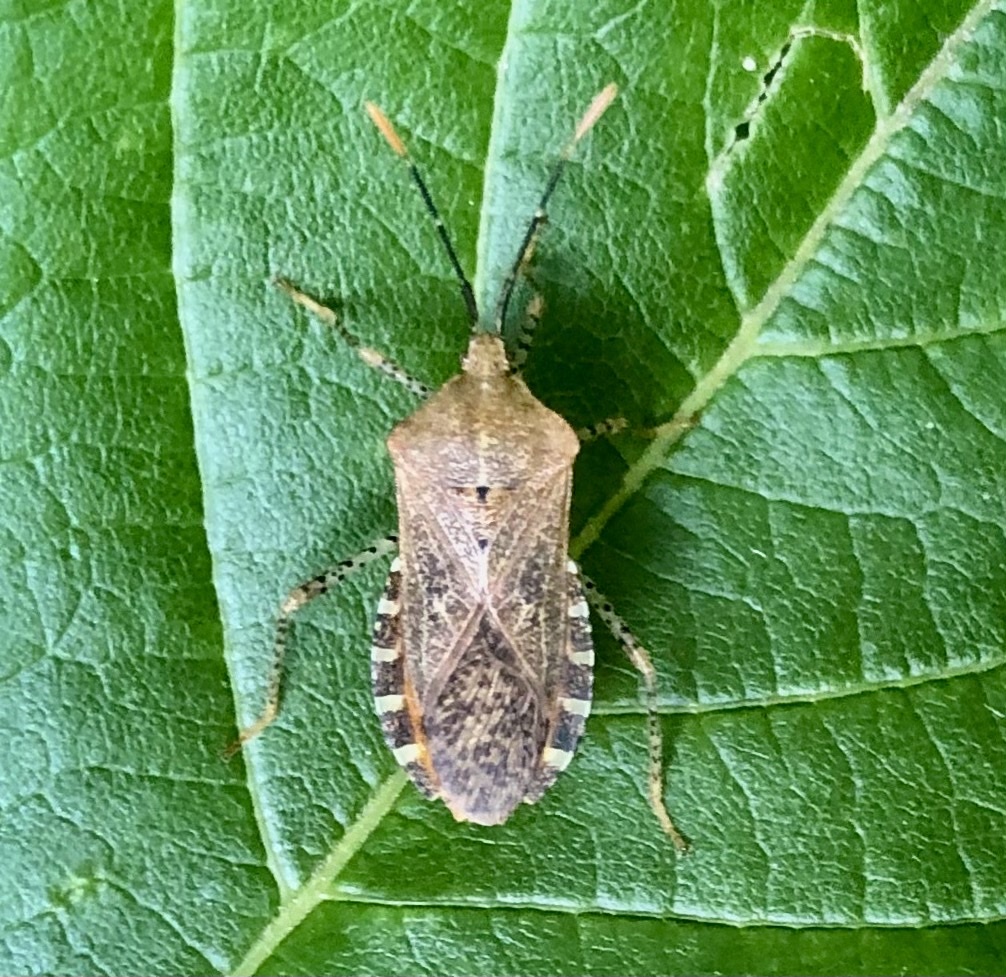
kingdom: Animalia
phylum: Arthropoda
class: Insecta
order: Hemiptera
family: Coreidae
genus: Anasa
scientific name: Anasa repetita
